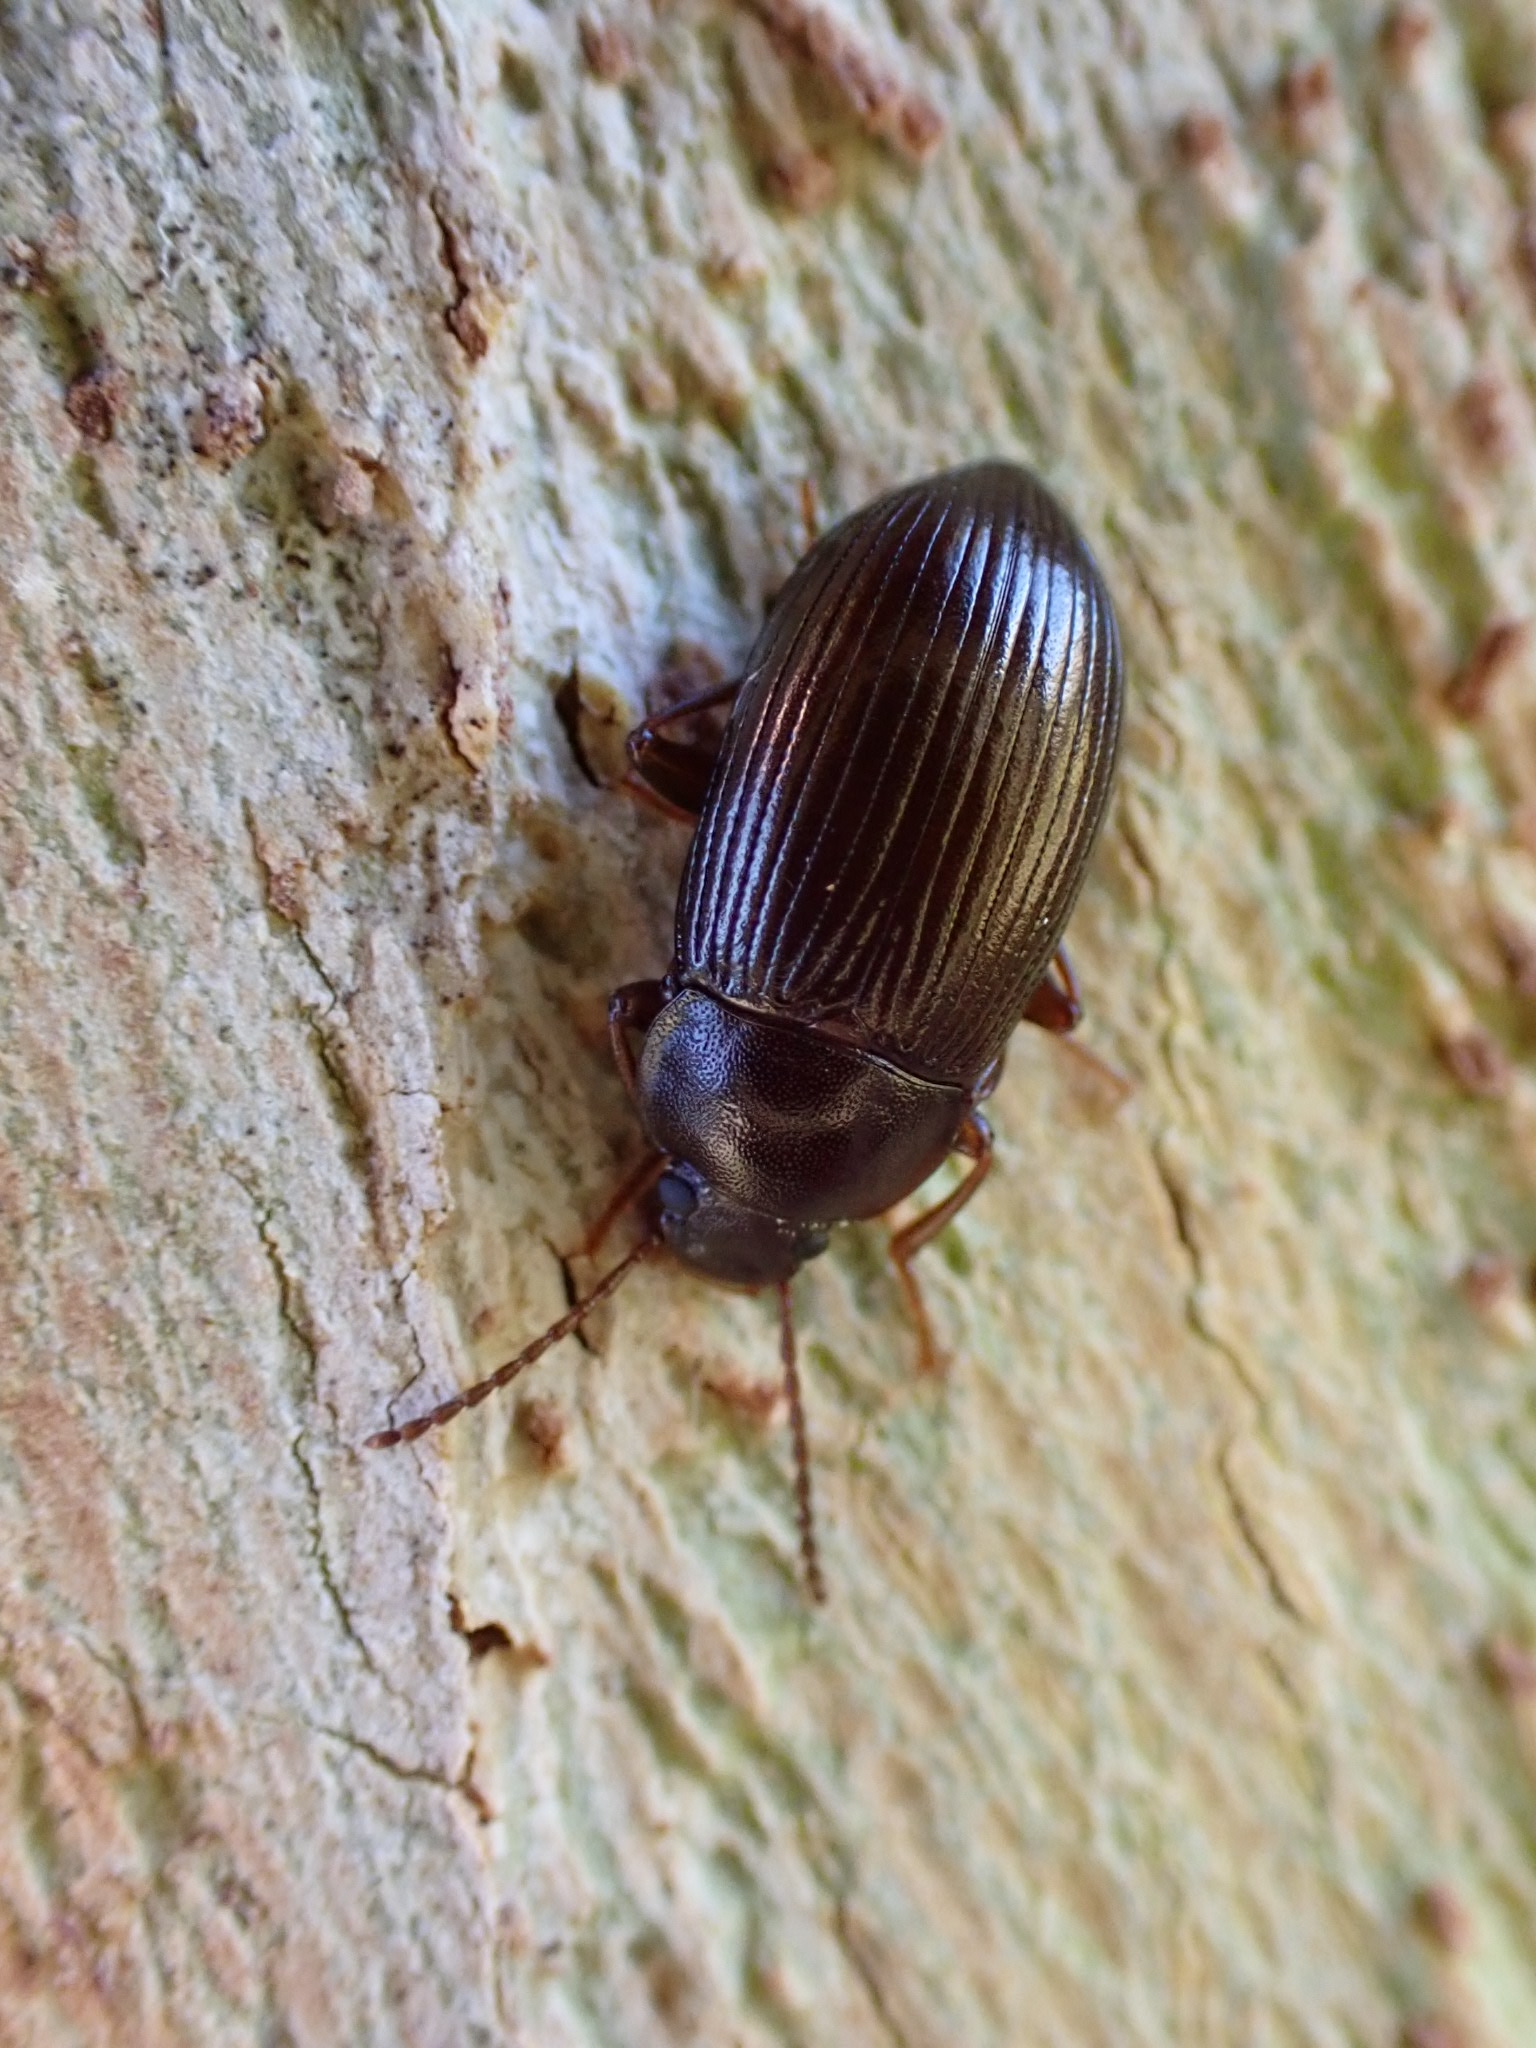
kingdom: Animalia
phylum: Arthropoda
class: Insecta
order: Coleoptera
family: Tenebrionidae
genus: Nalassus
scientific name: Nalassus laevioctostriatus
